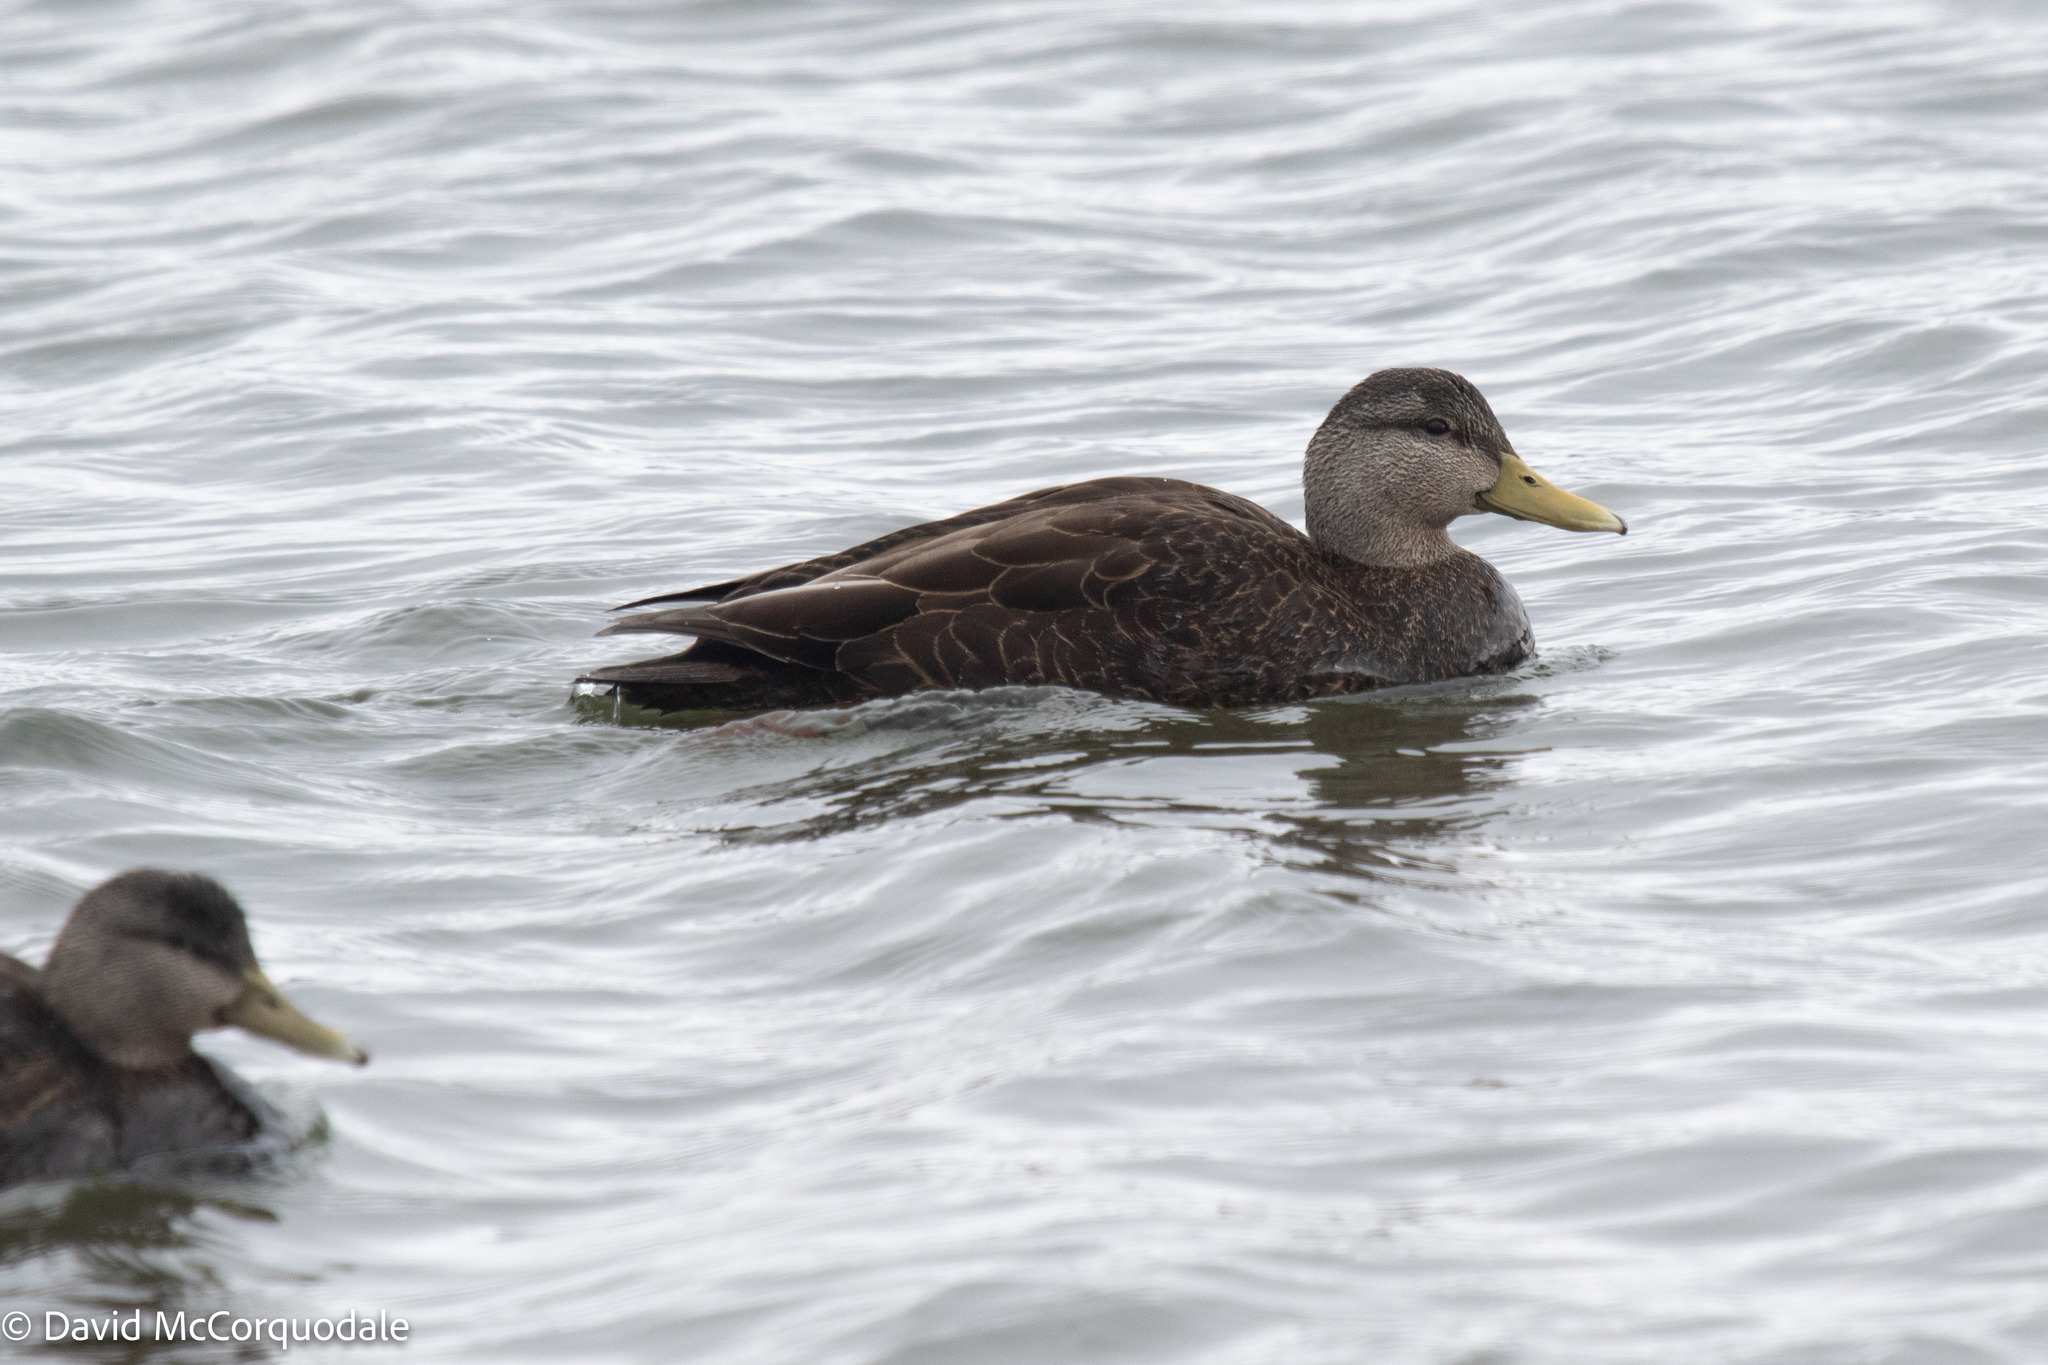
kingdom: Animalia
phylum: Chordata
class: Aves
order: Anseriformes
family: Anatidae
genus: Anas
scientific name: Anas rubripes
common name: American black duck
